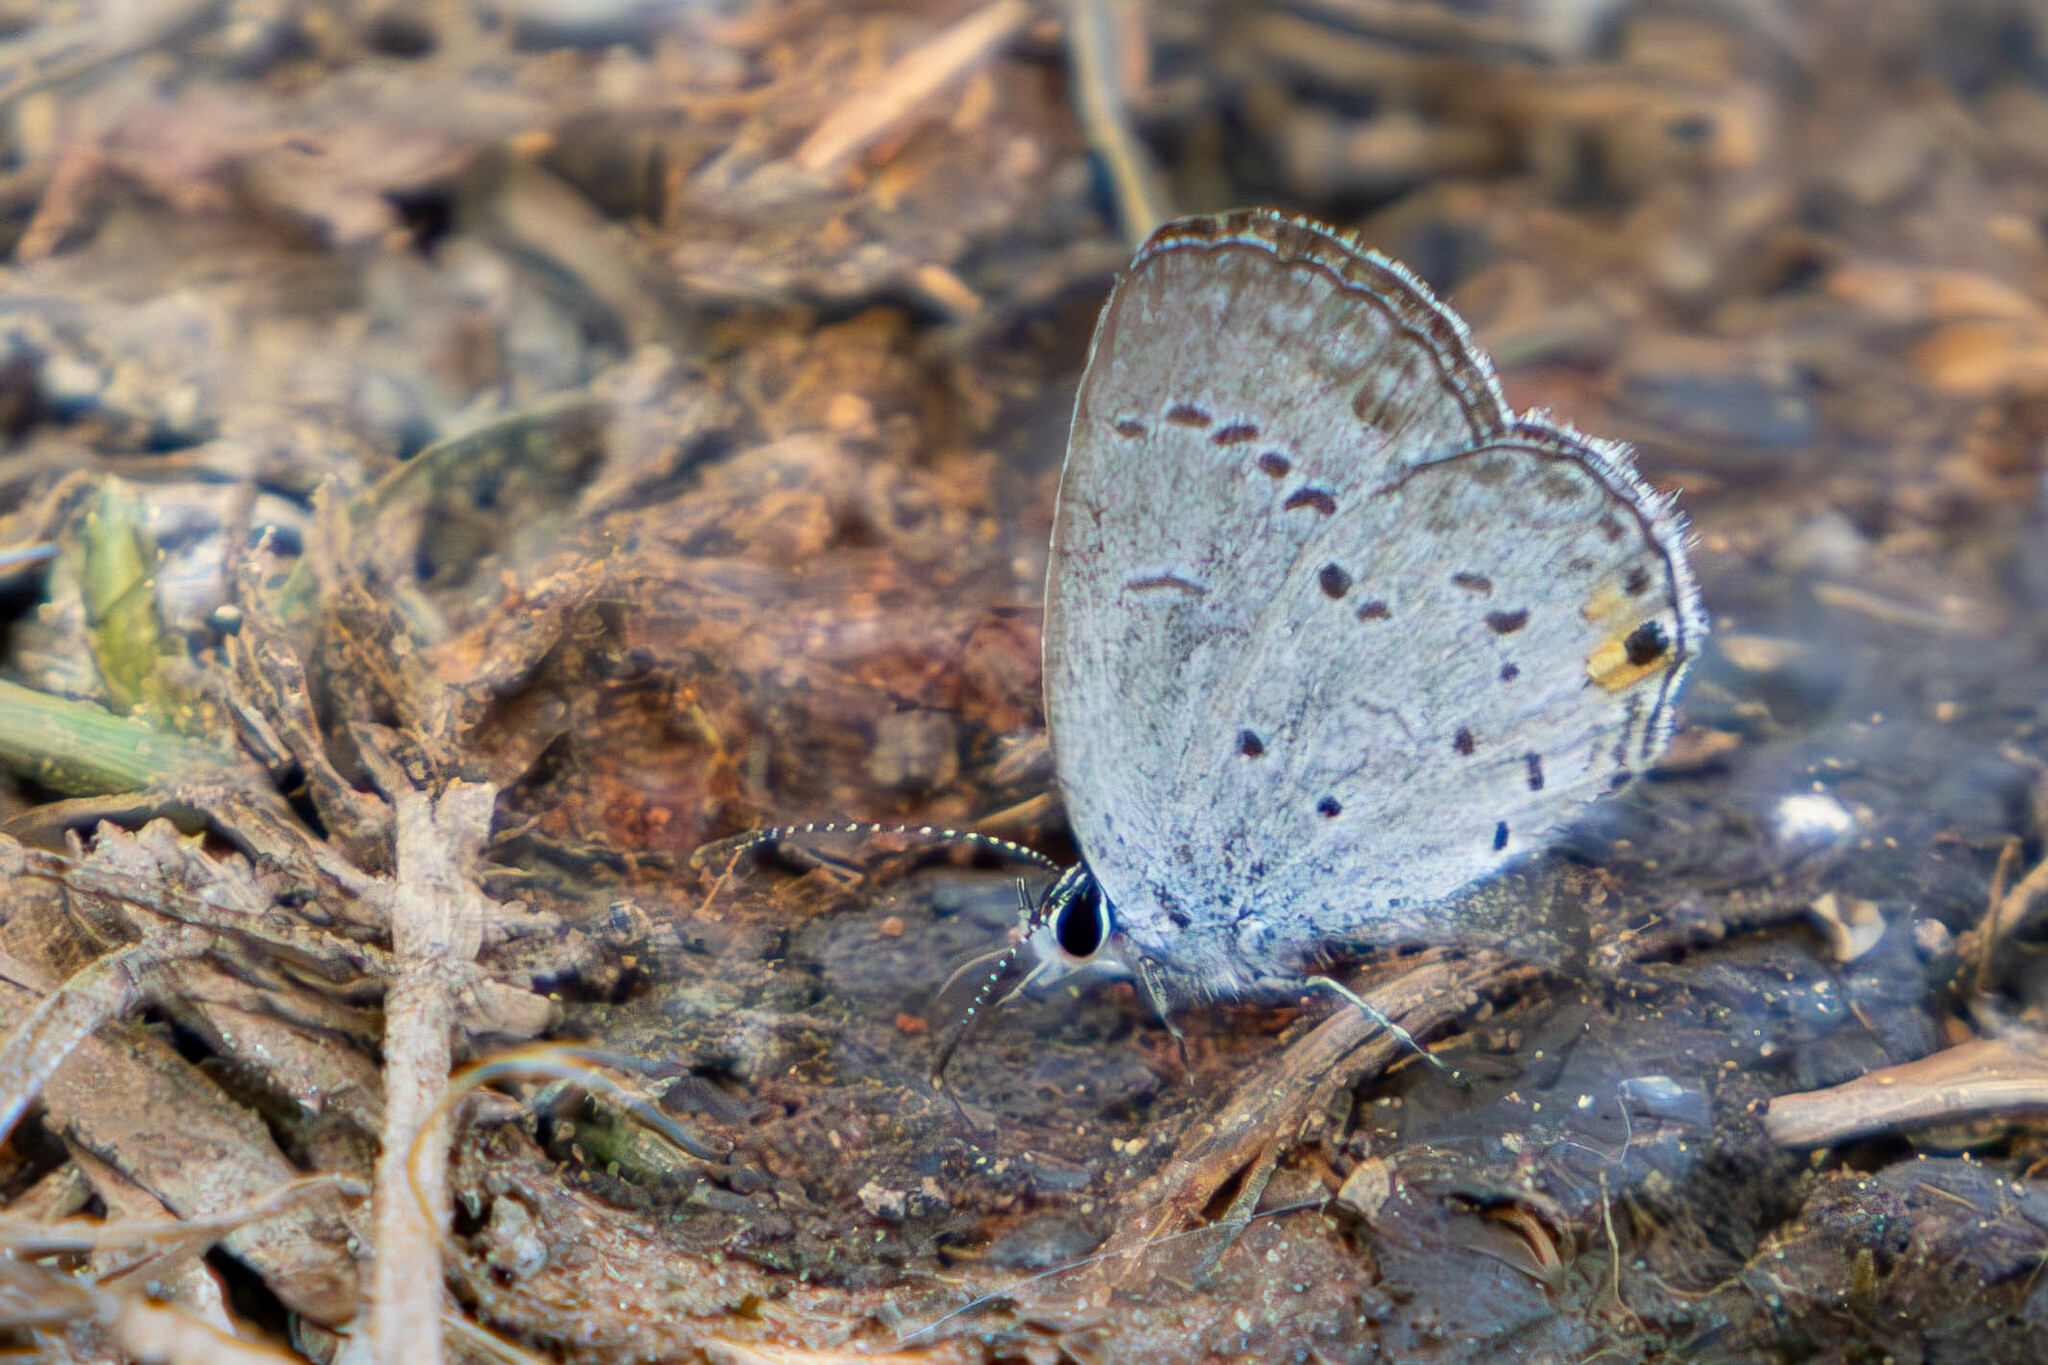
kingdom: Animalia
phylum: Arthropoda
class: Insecta
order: Lepidoptera
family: Lycaenidae
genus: Elkalyce
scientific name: Elkalyce comyntas
